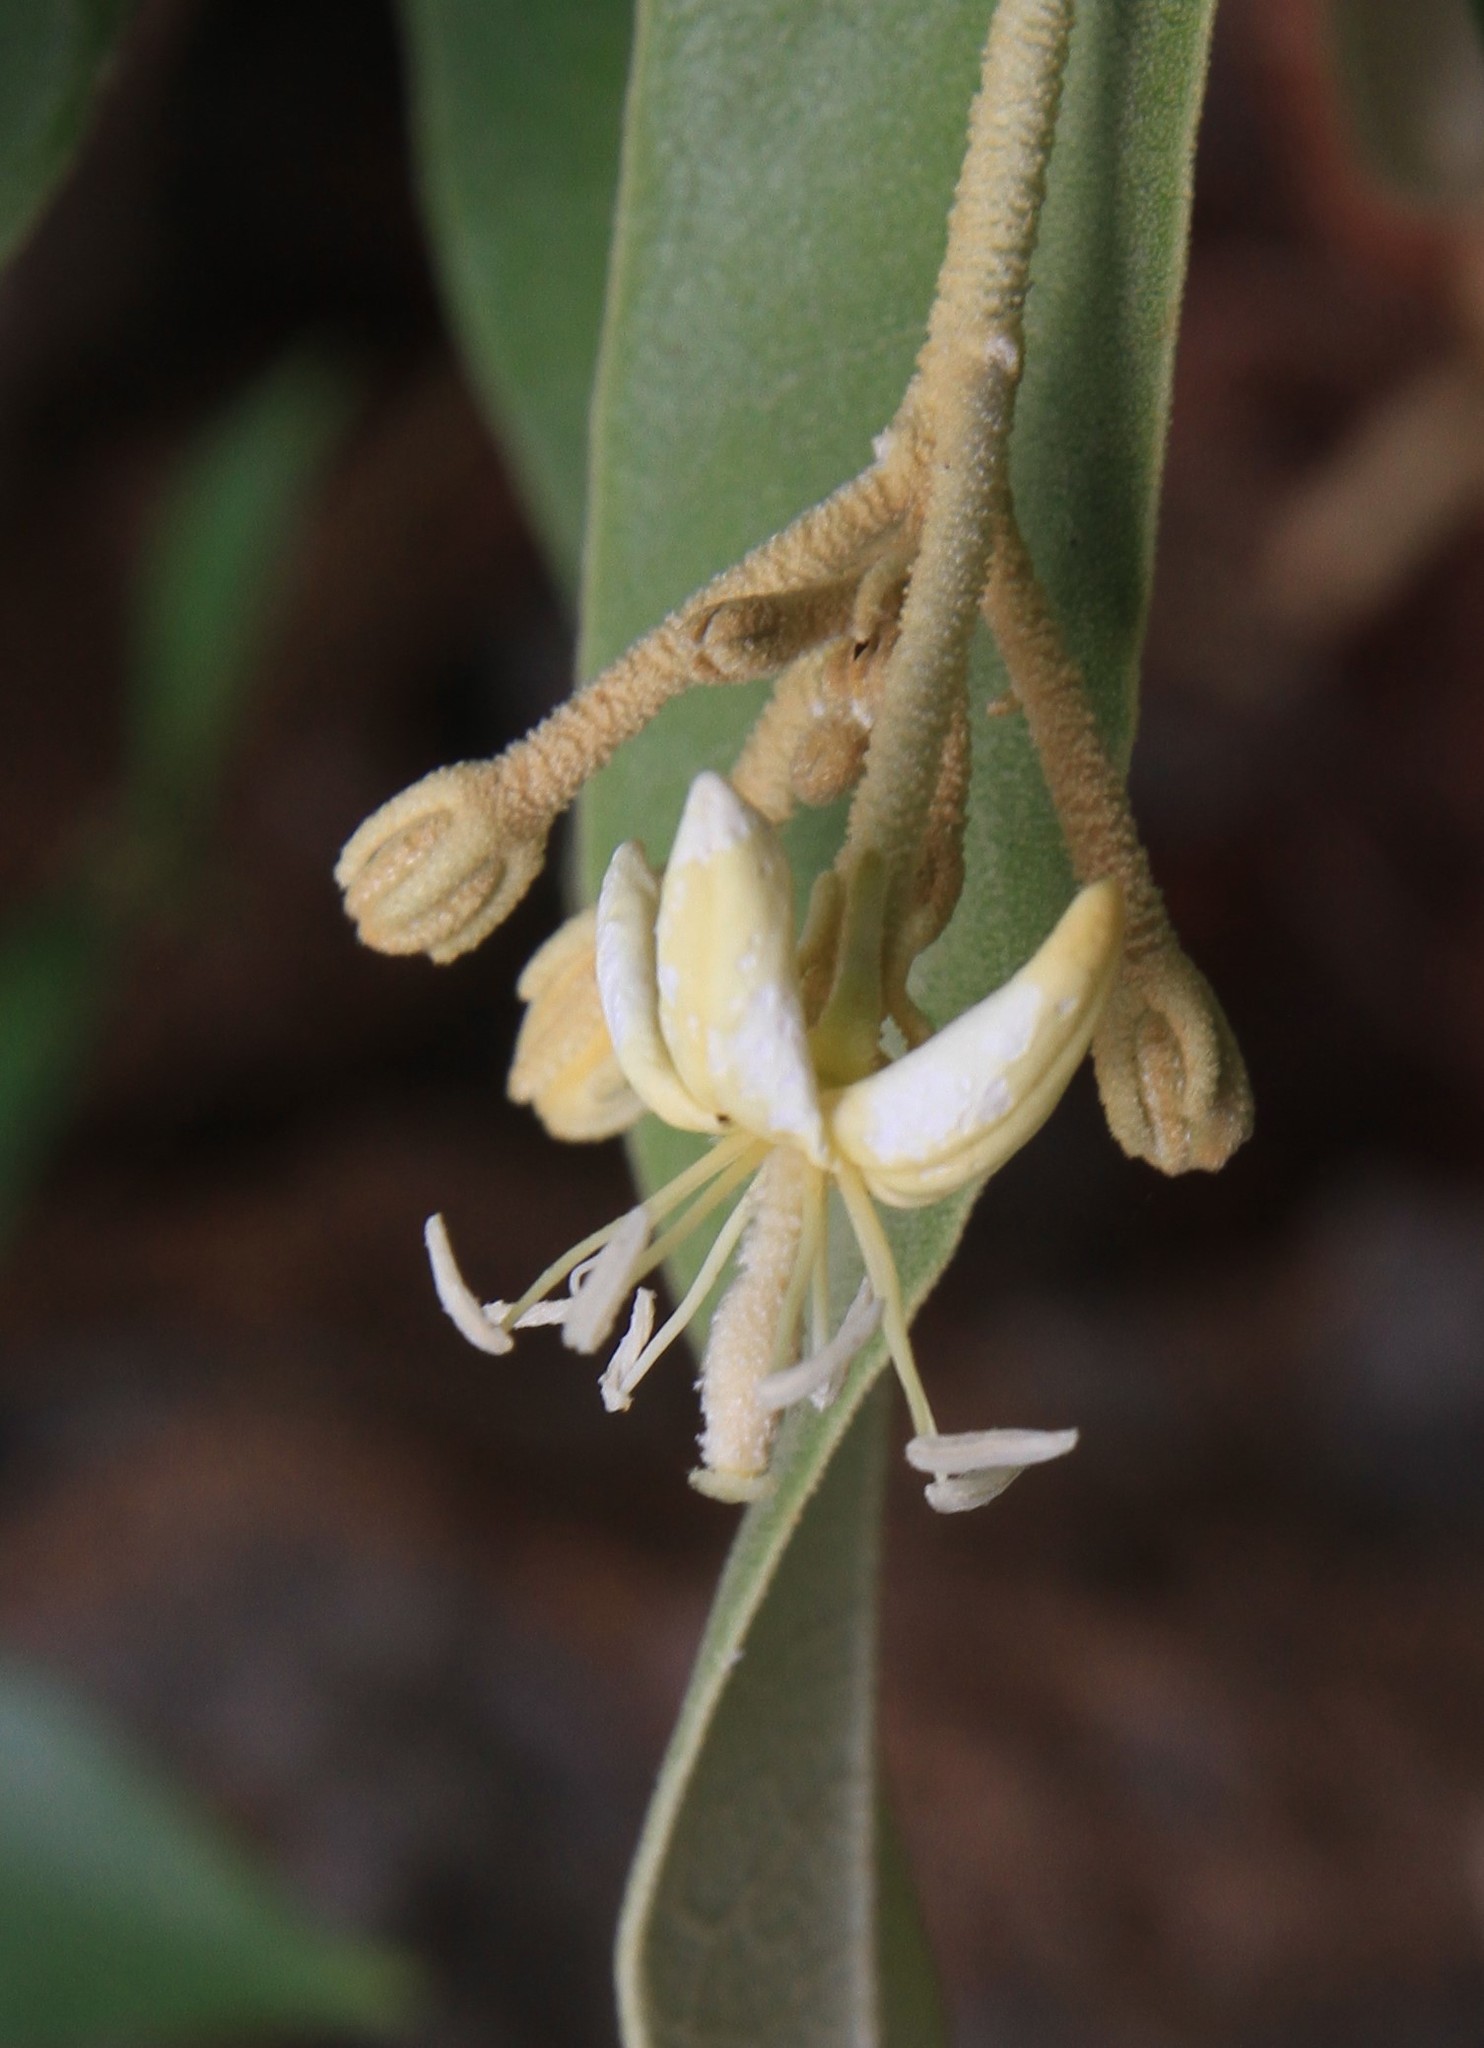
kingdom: Plantae
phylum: Tracheophyta
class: Magnoliopsida
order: Brassicales
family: Capparaceae
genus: Quadrella
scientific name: Quadrella ferruginea
